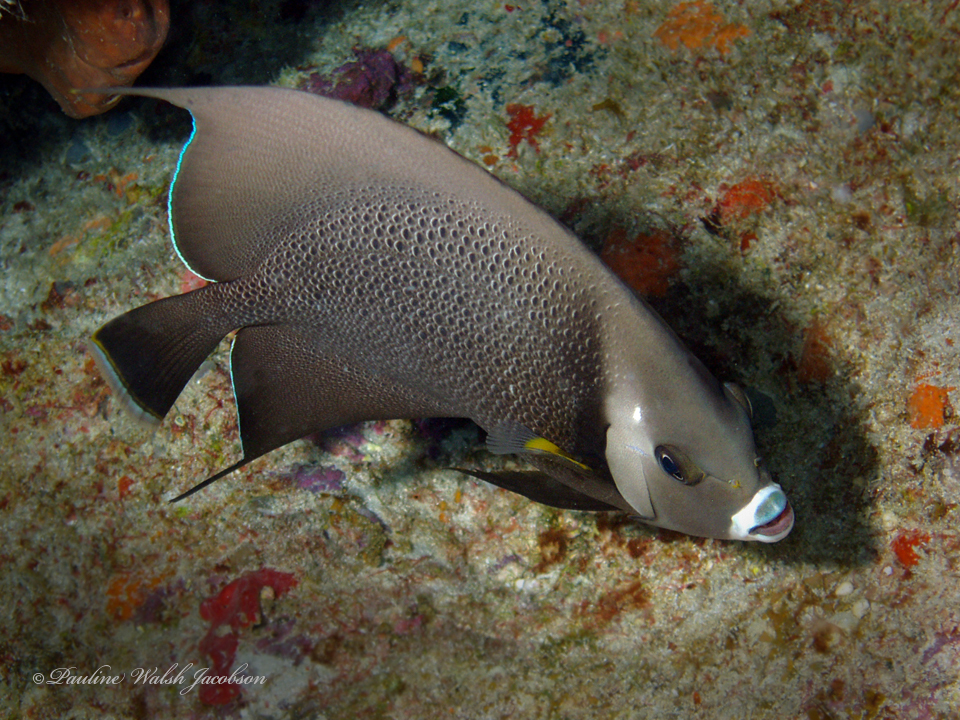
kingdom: Animalia
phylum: Chordata
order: Perciformes
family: Pomacanthidae
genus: Pomacanthus
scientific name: Pomacanthus arcuatus
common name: Gray angelfish
